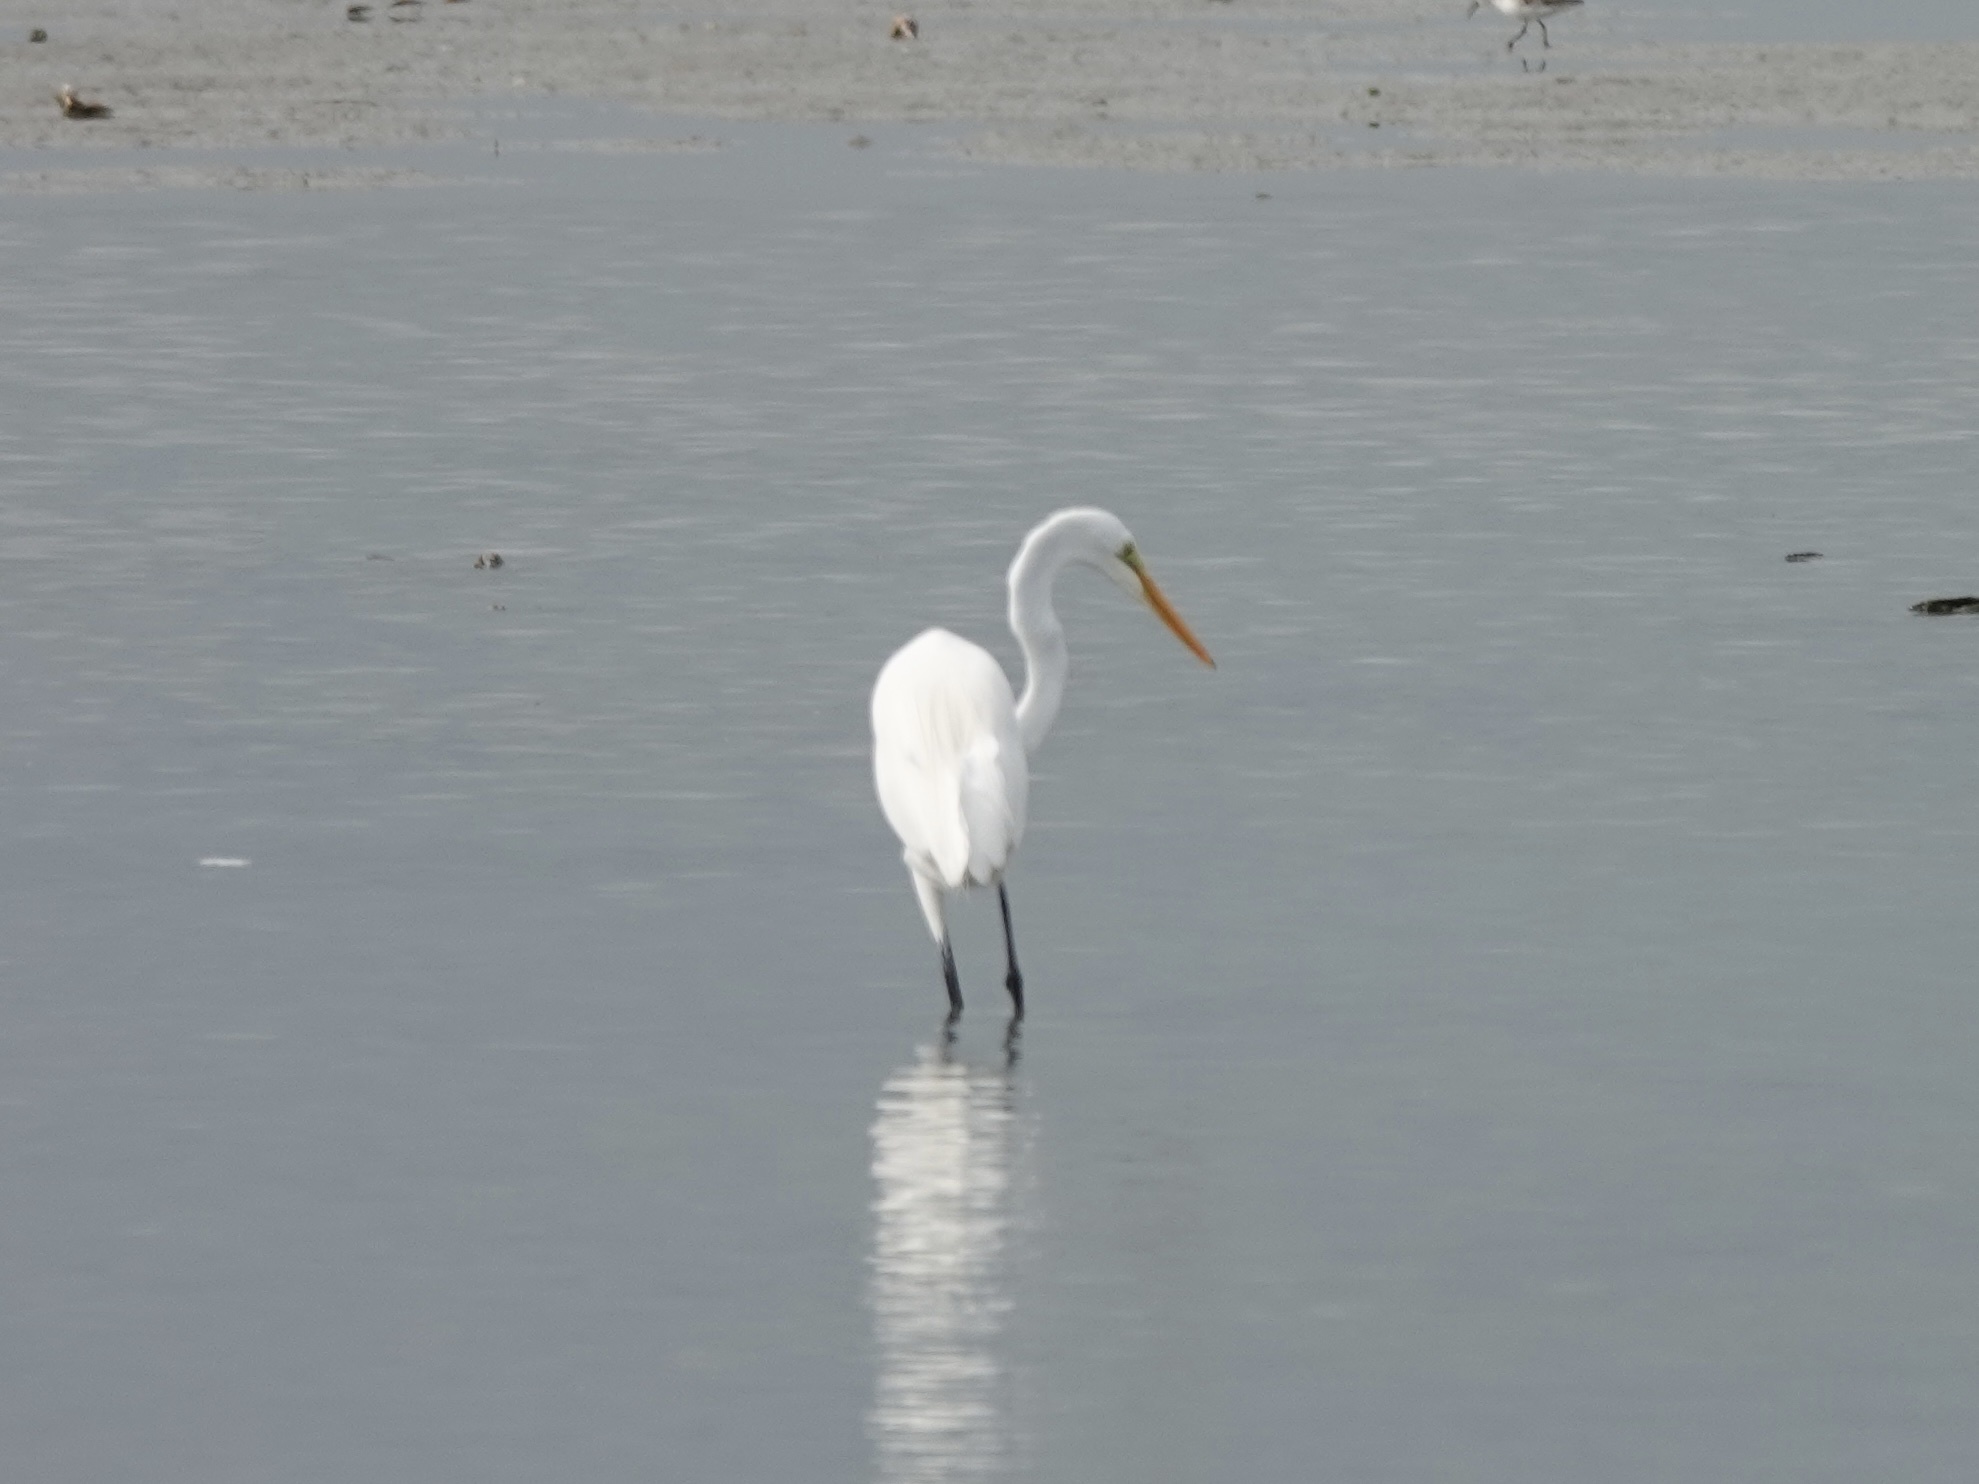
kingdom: Animalia
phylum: Chordata
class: Aves
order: Pelecaniformes
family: Ardeidae
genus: Ardea
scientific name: Ardea alba
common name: Great egret
